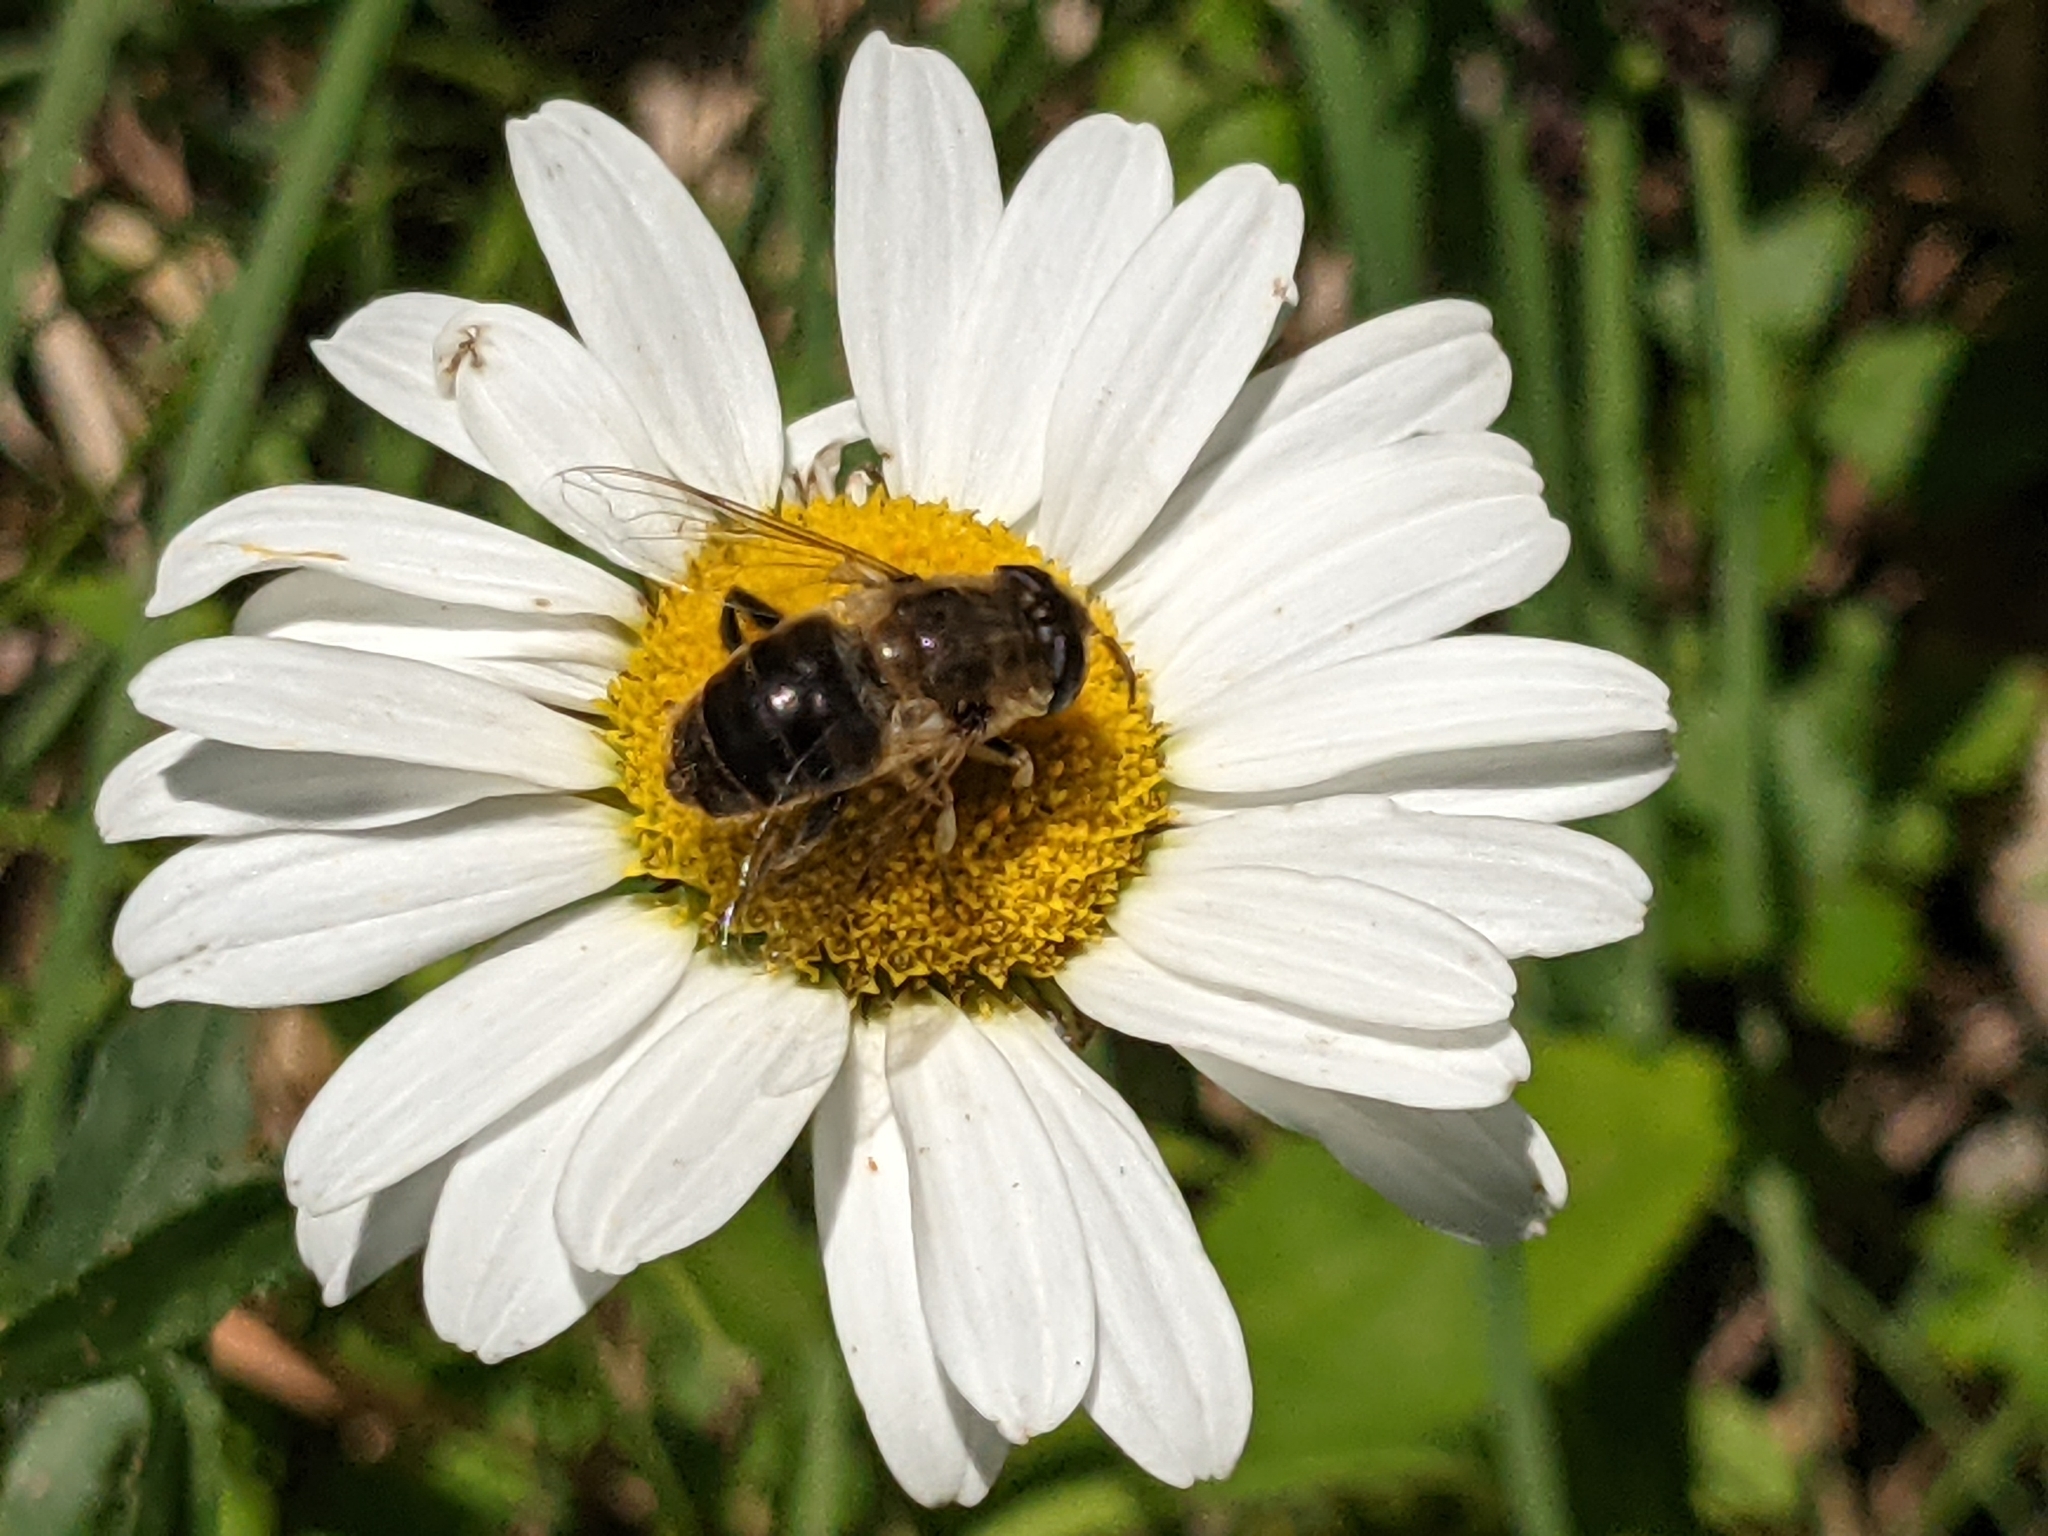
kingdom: Animalia
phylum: Arthropoda
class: Insecta
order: Diptera
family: Syrphidae
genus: Eristalis
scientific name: Eristalis tenax
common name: Drone fly
